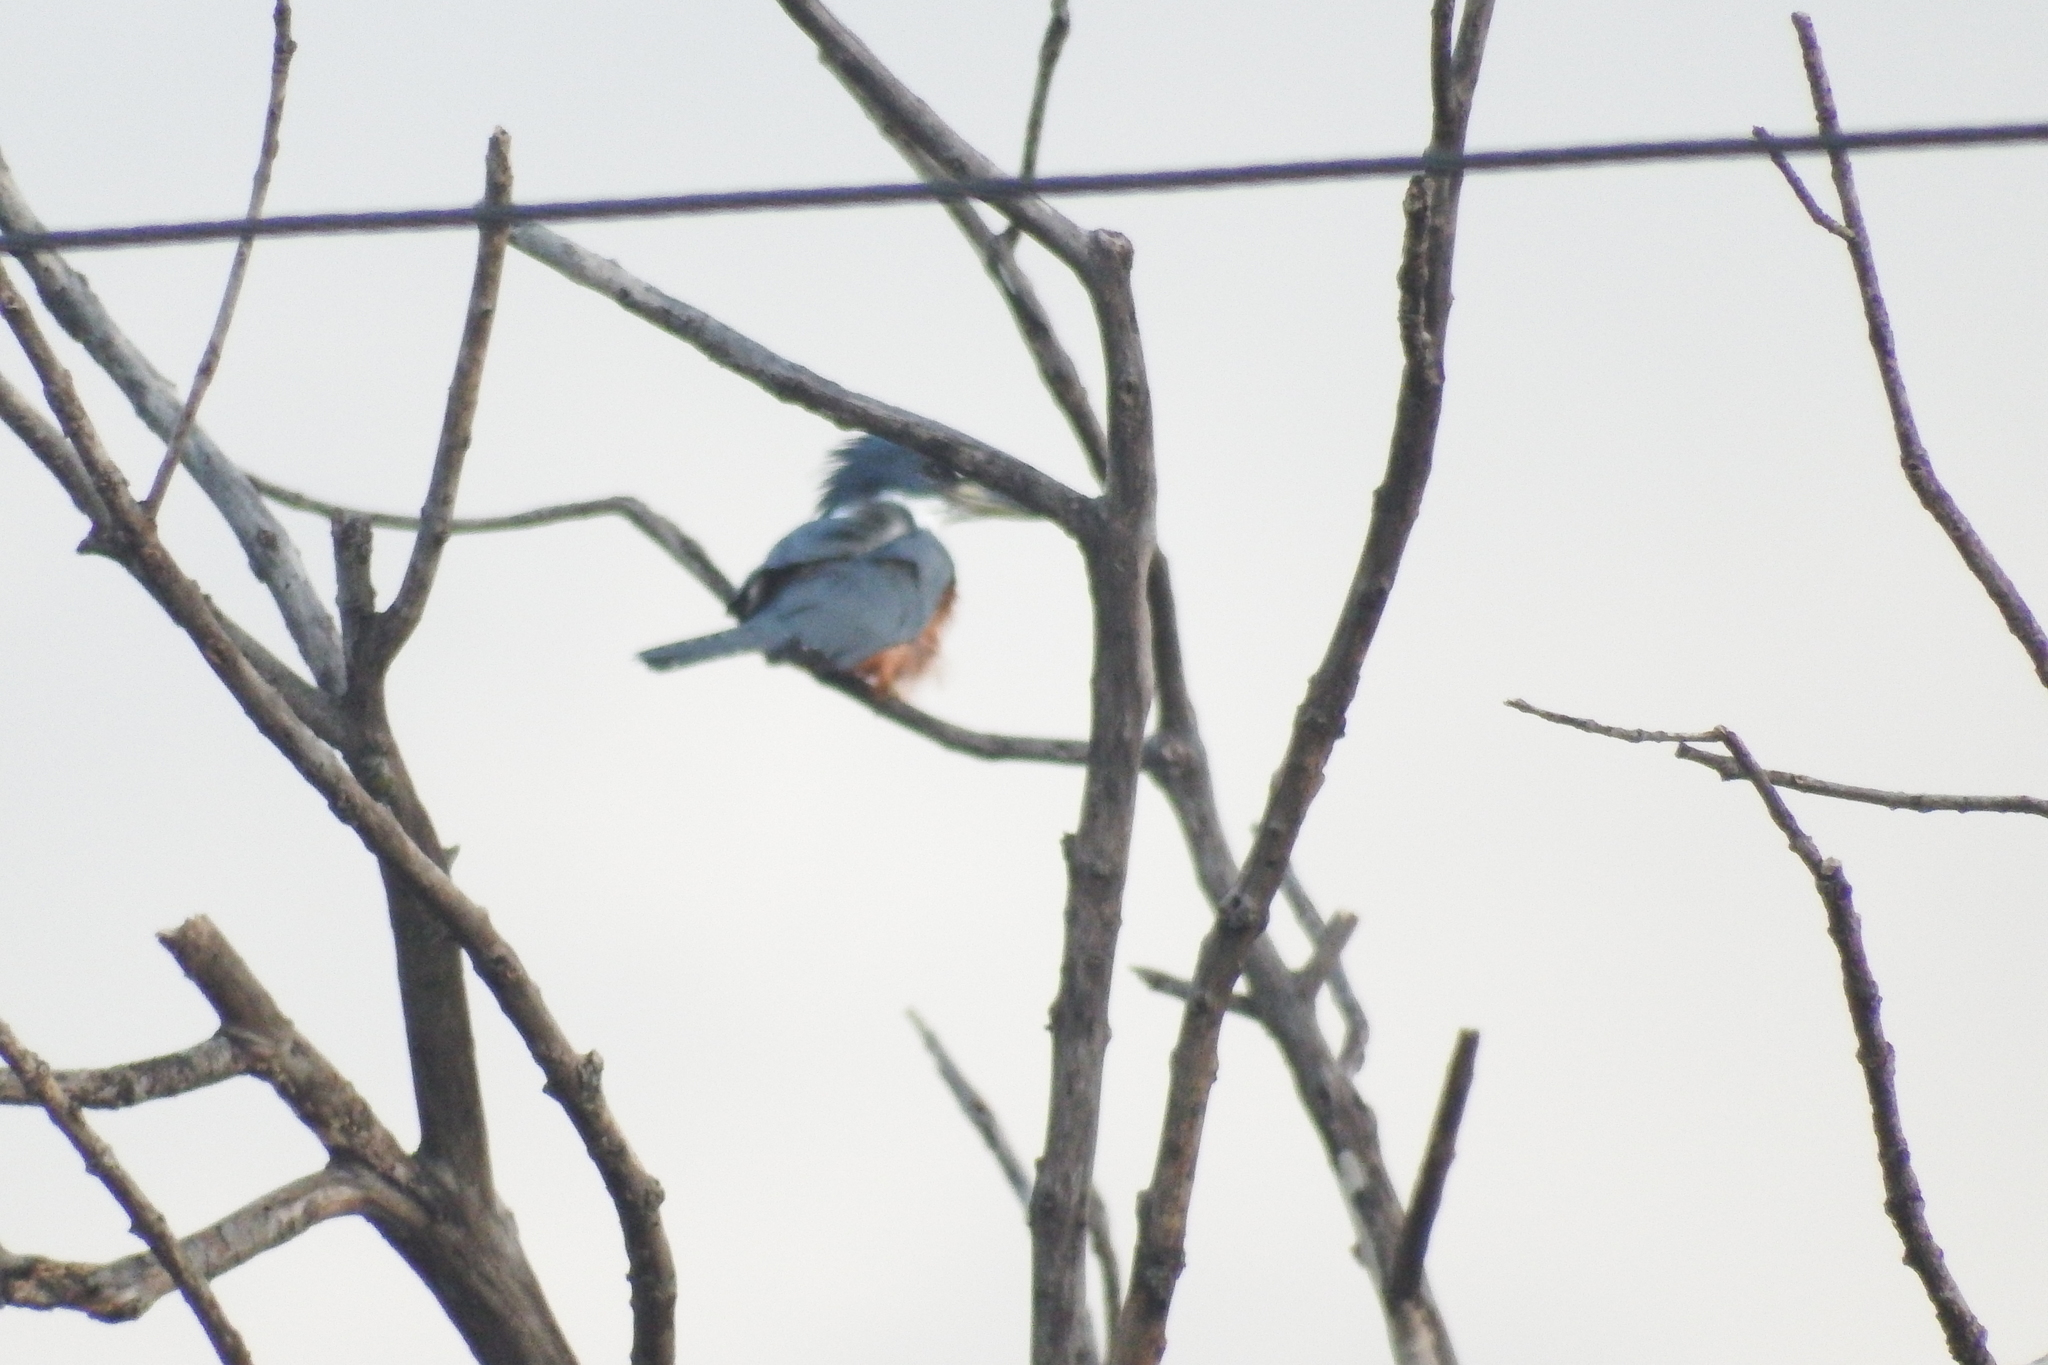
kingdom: Animalia
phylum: Chordata
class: Aves
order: Coraciiformes
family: Alcedinidae
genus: Megaceryle
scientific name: Megaceryle torquata
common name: Ringed kingfisher
